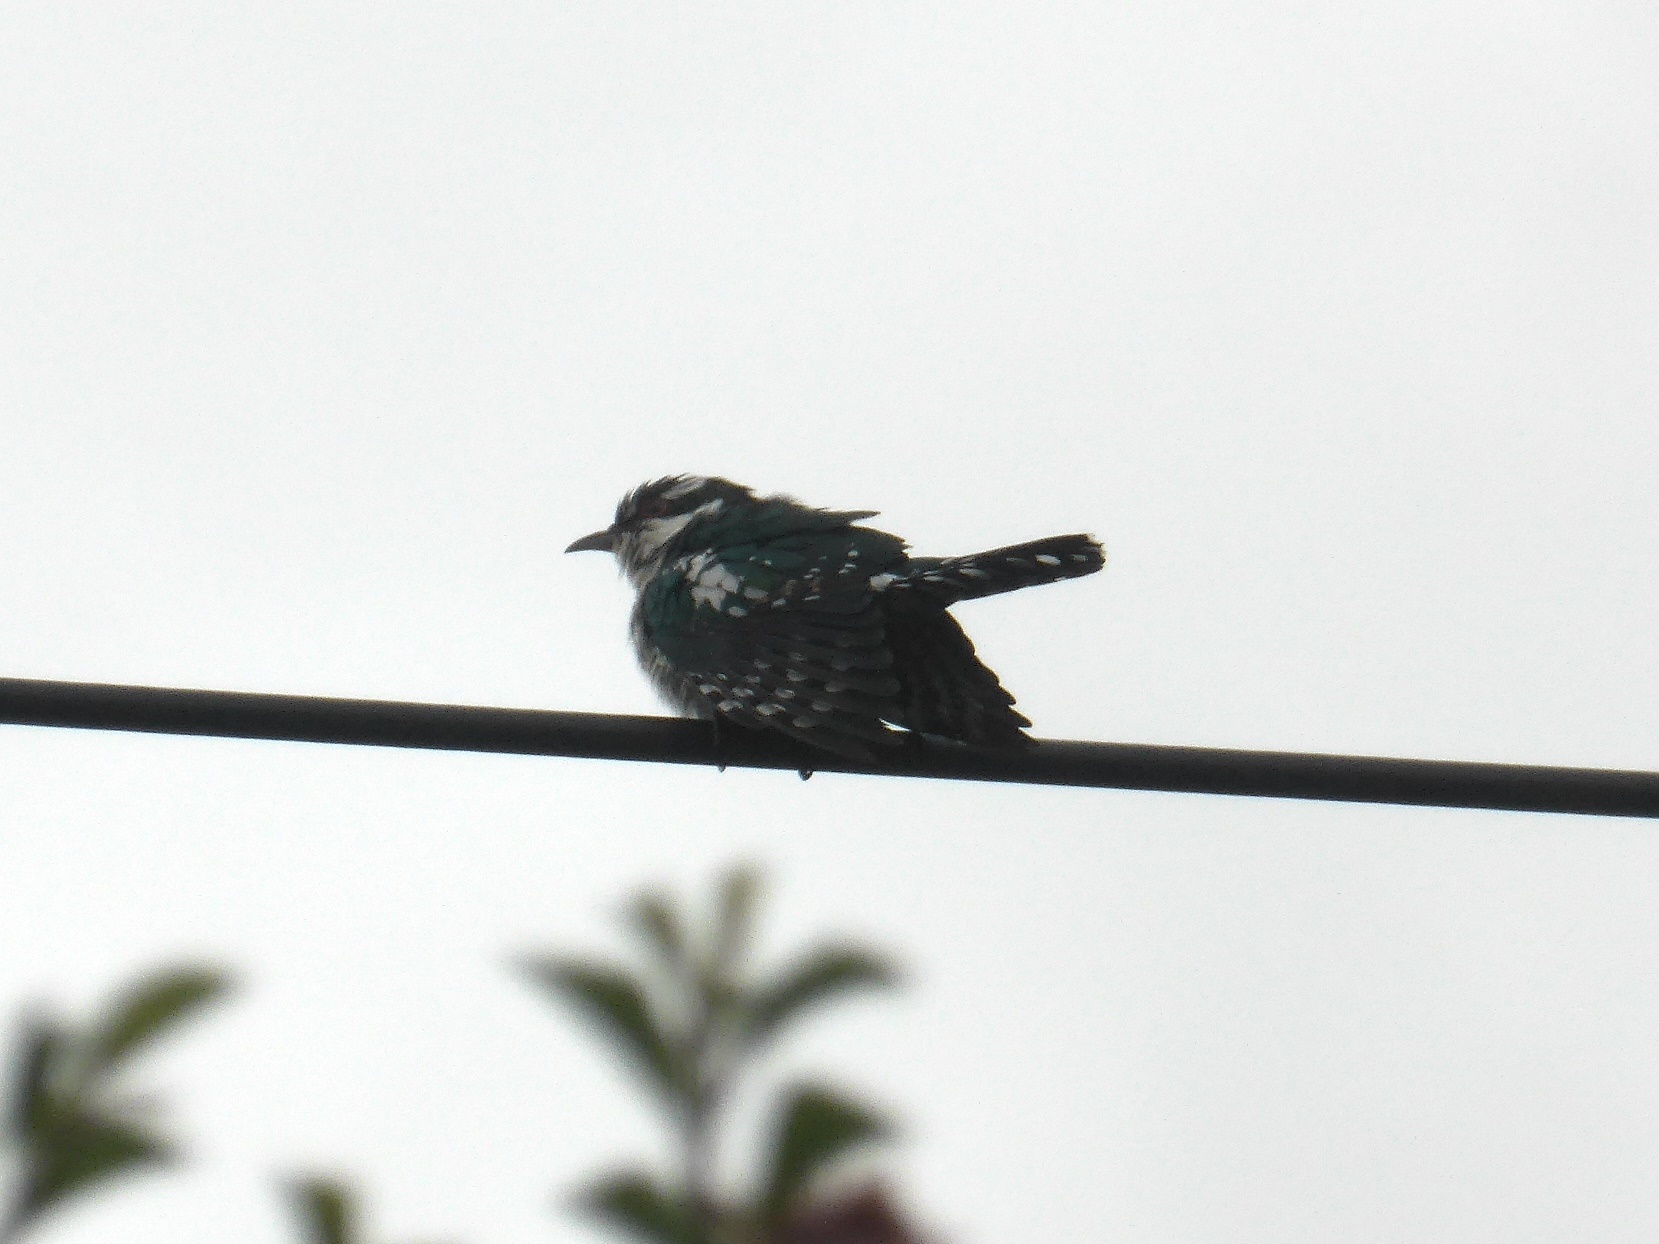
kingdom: Animalia
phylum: Chordata
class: Aves
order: Cuculiformes
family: Cuculidae
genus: Chrysococcyx
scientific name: Chrysococcyx caprius
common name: Diederik cuckoo
